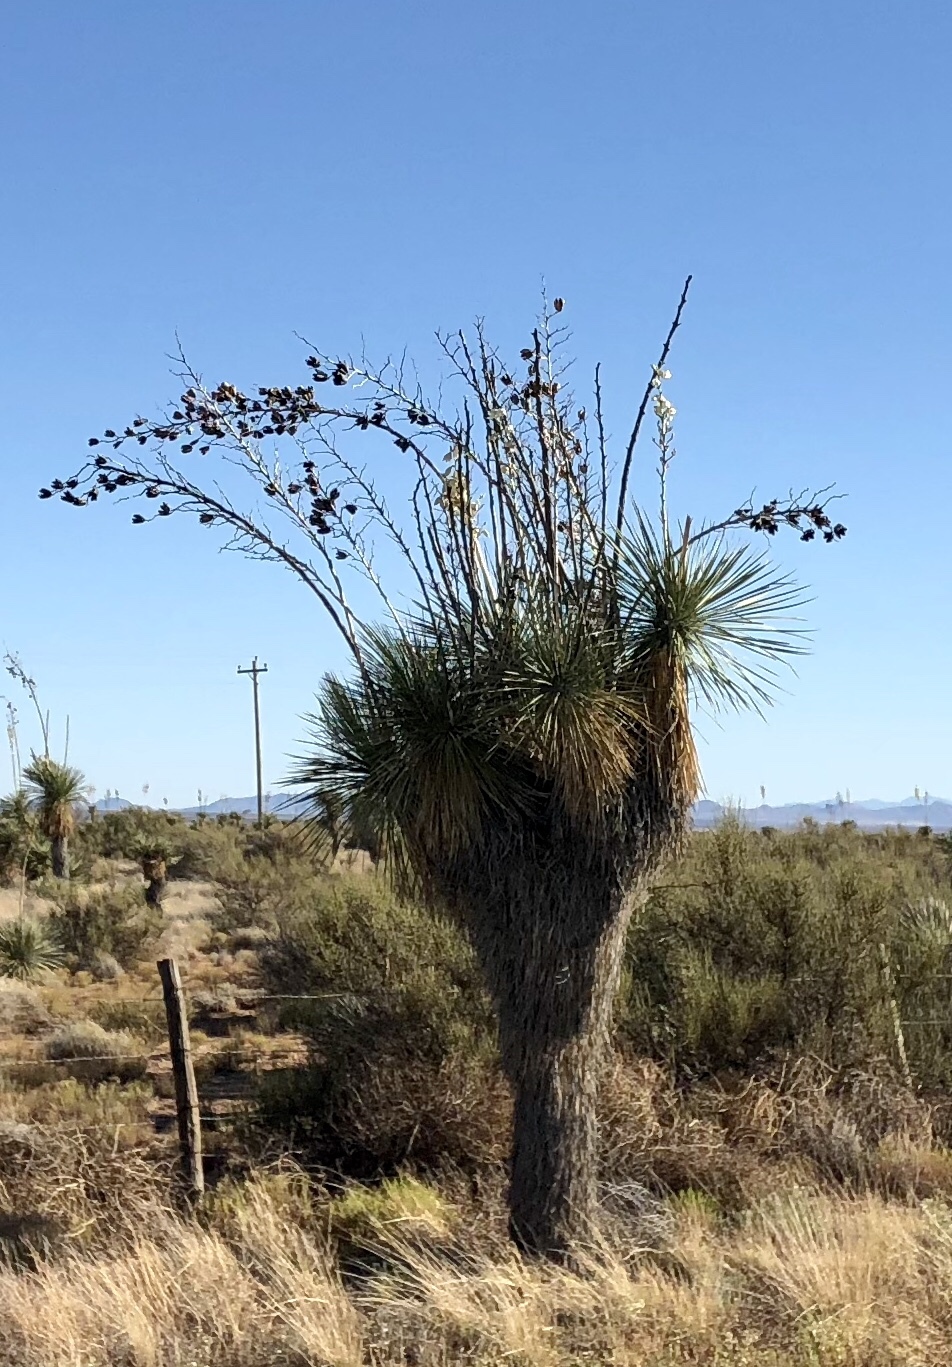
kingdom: Plantae
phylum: Tracheophyta
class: Liliopsida
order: Asparagales
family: Asparagaceae
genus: Yucca
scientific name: Yucca elata
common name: Palmella
